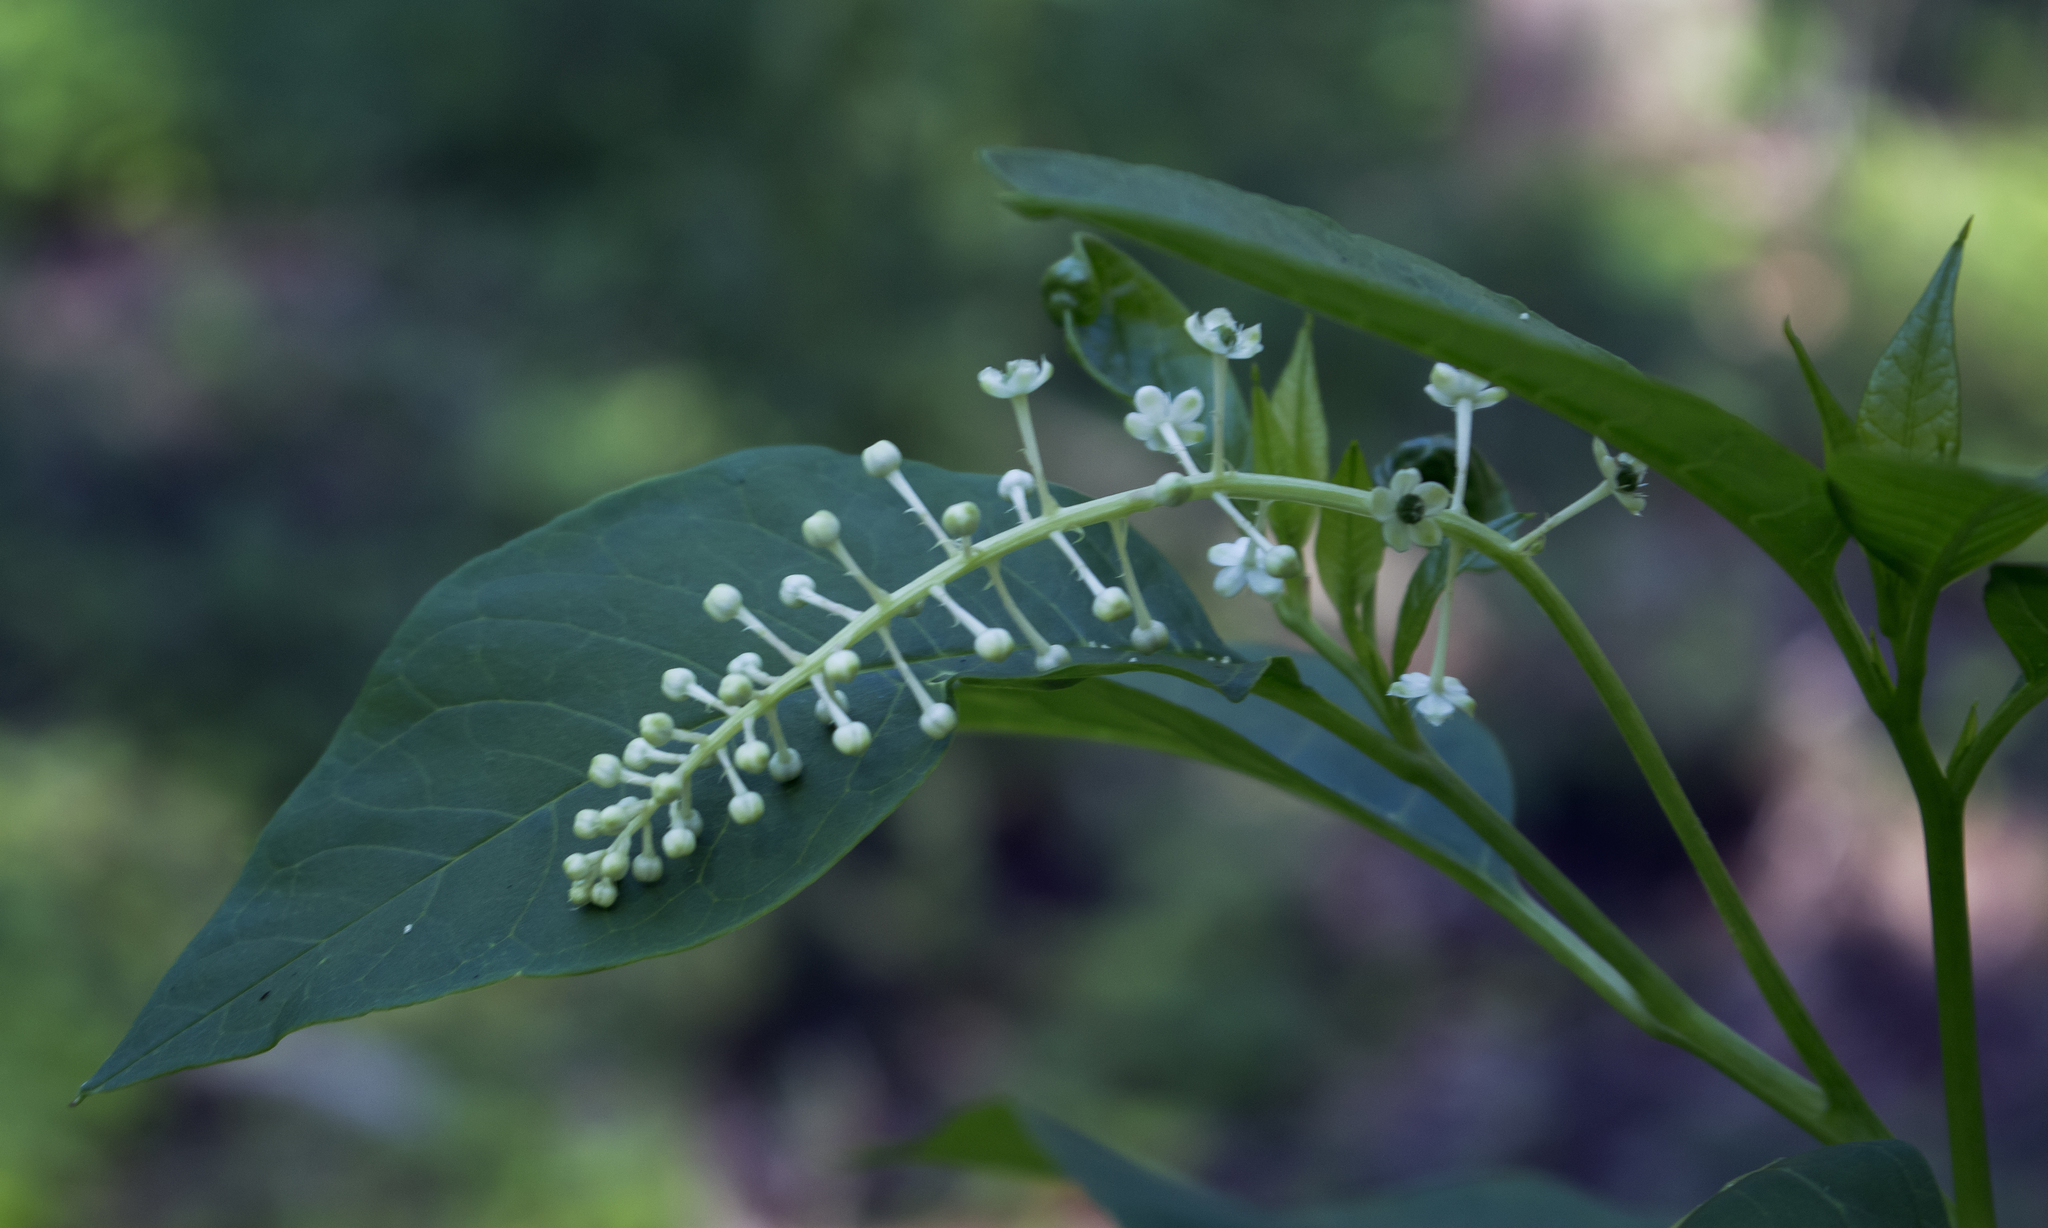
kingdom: Plantae
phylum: Tracheophyta
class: Magnoliopsida
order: Caryophyllales
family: Phytolaccaceae
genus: Phytolacca
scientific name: Phytolacca americana
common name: American pokeweed
